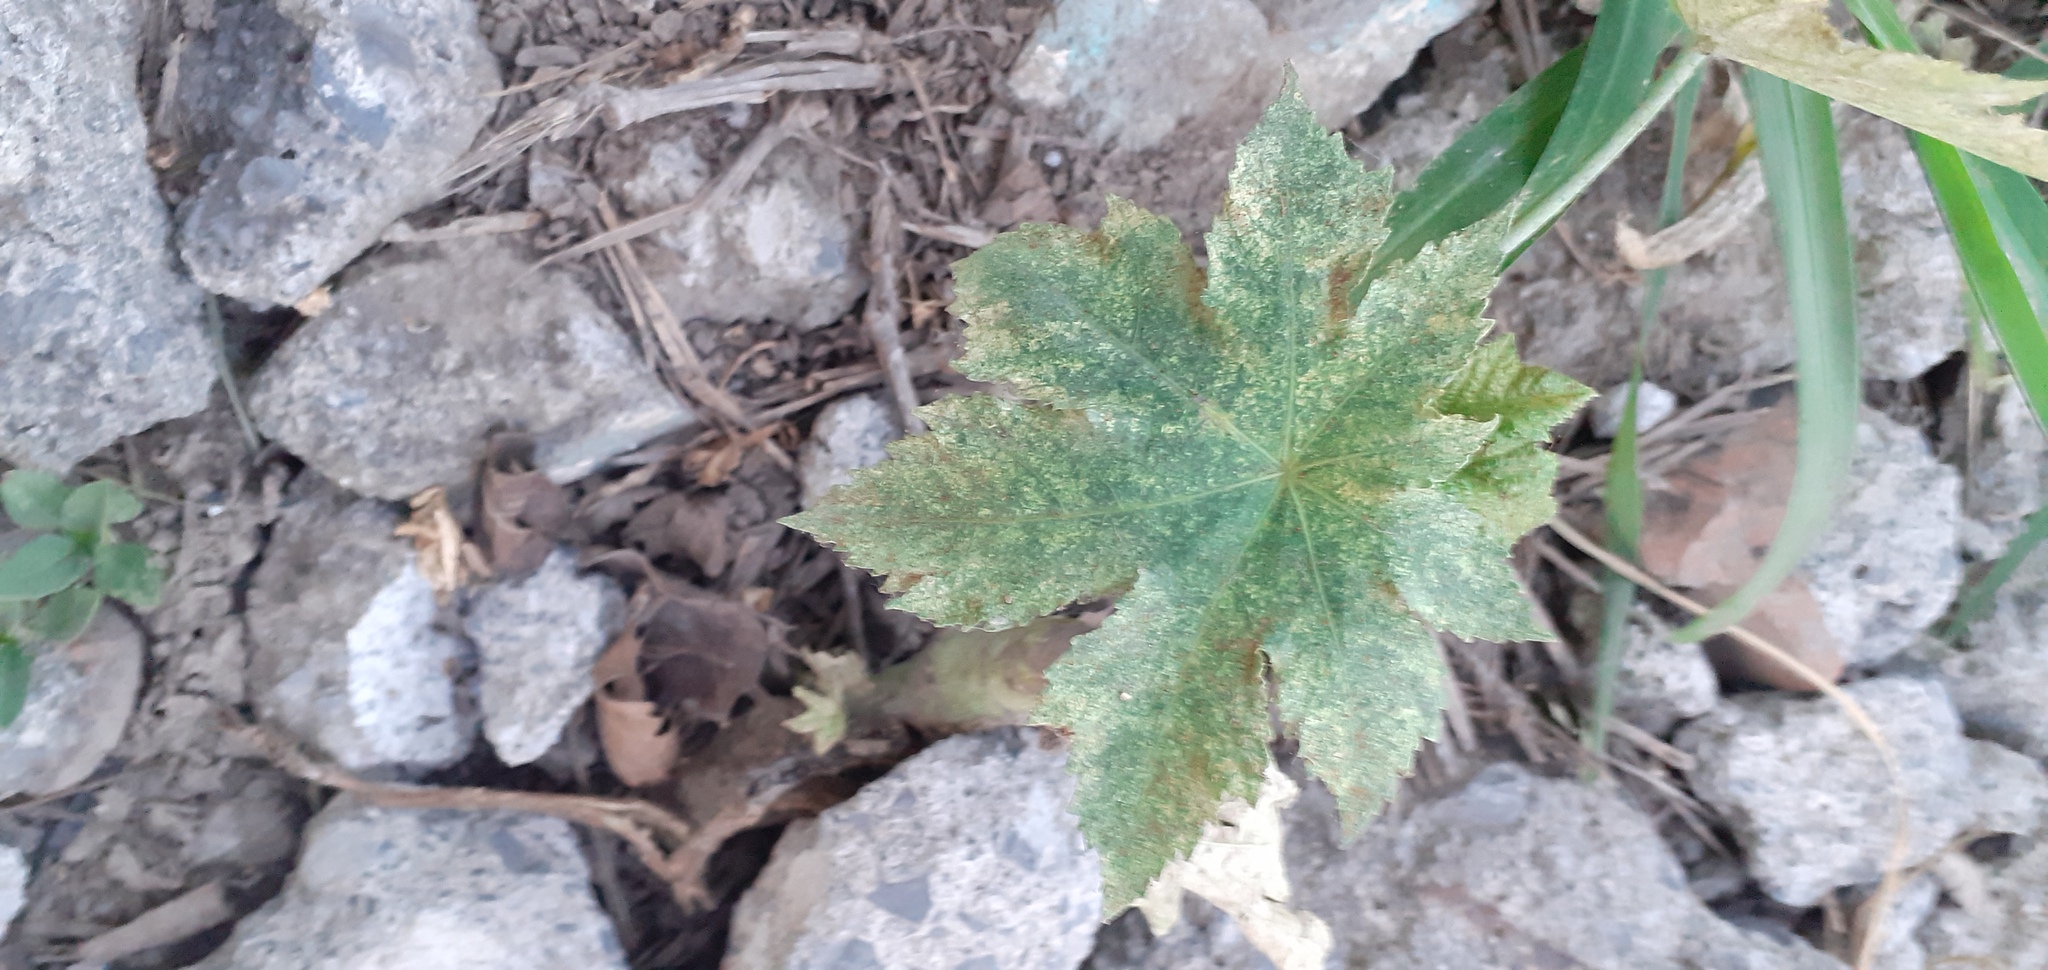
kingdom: Plantae
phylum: Tracheophyta
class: Magnoliopsida
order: Malpighiales
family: Euphorbiaceae
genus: Ricinus
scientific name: Ricinus communis
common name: Castor-oil-plant
